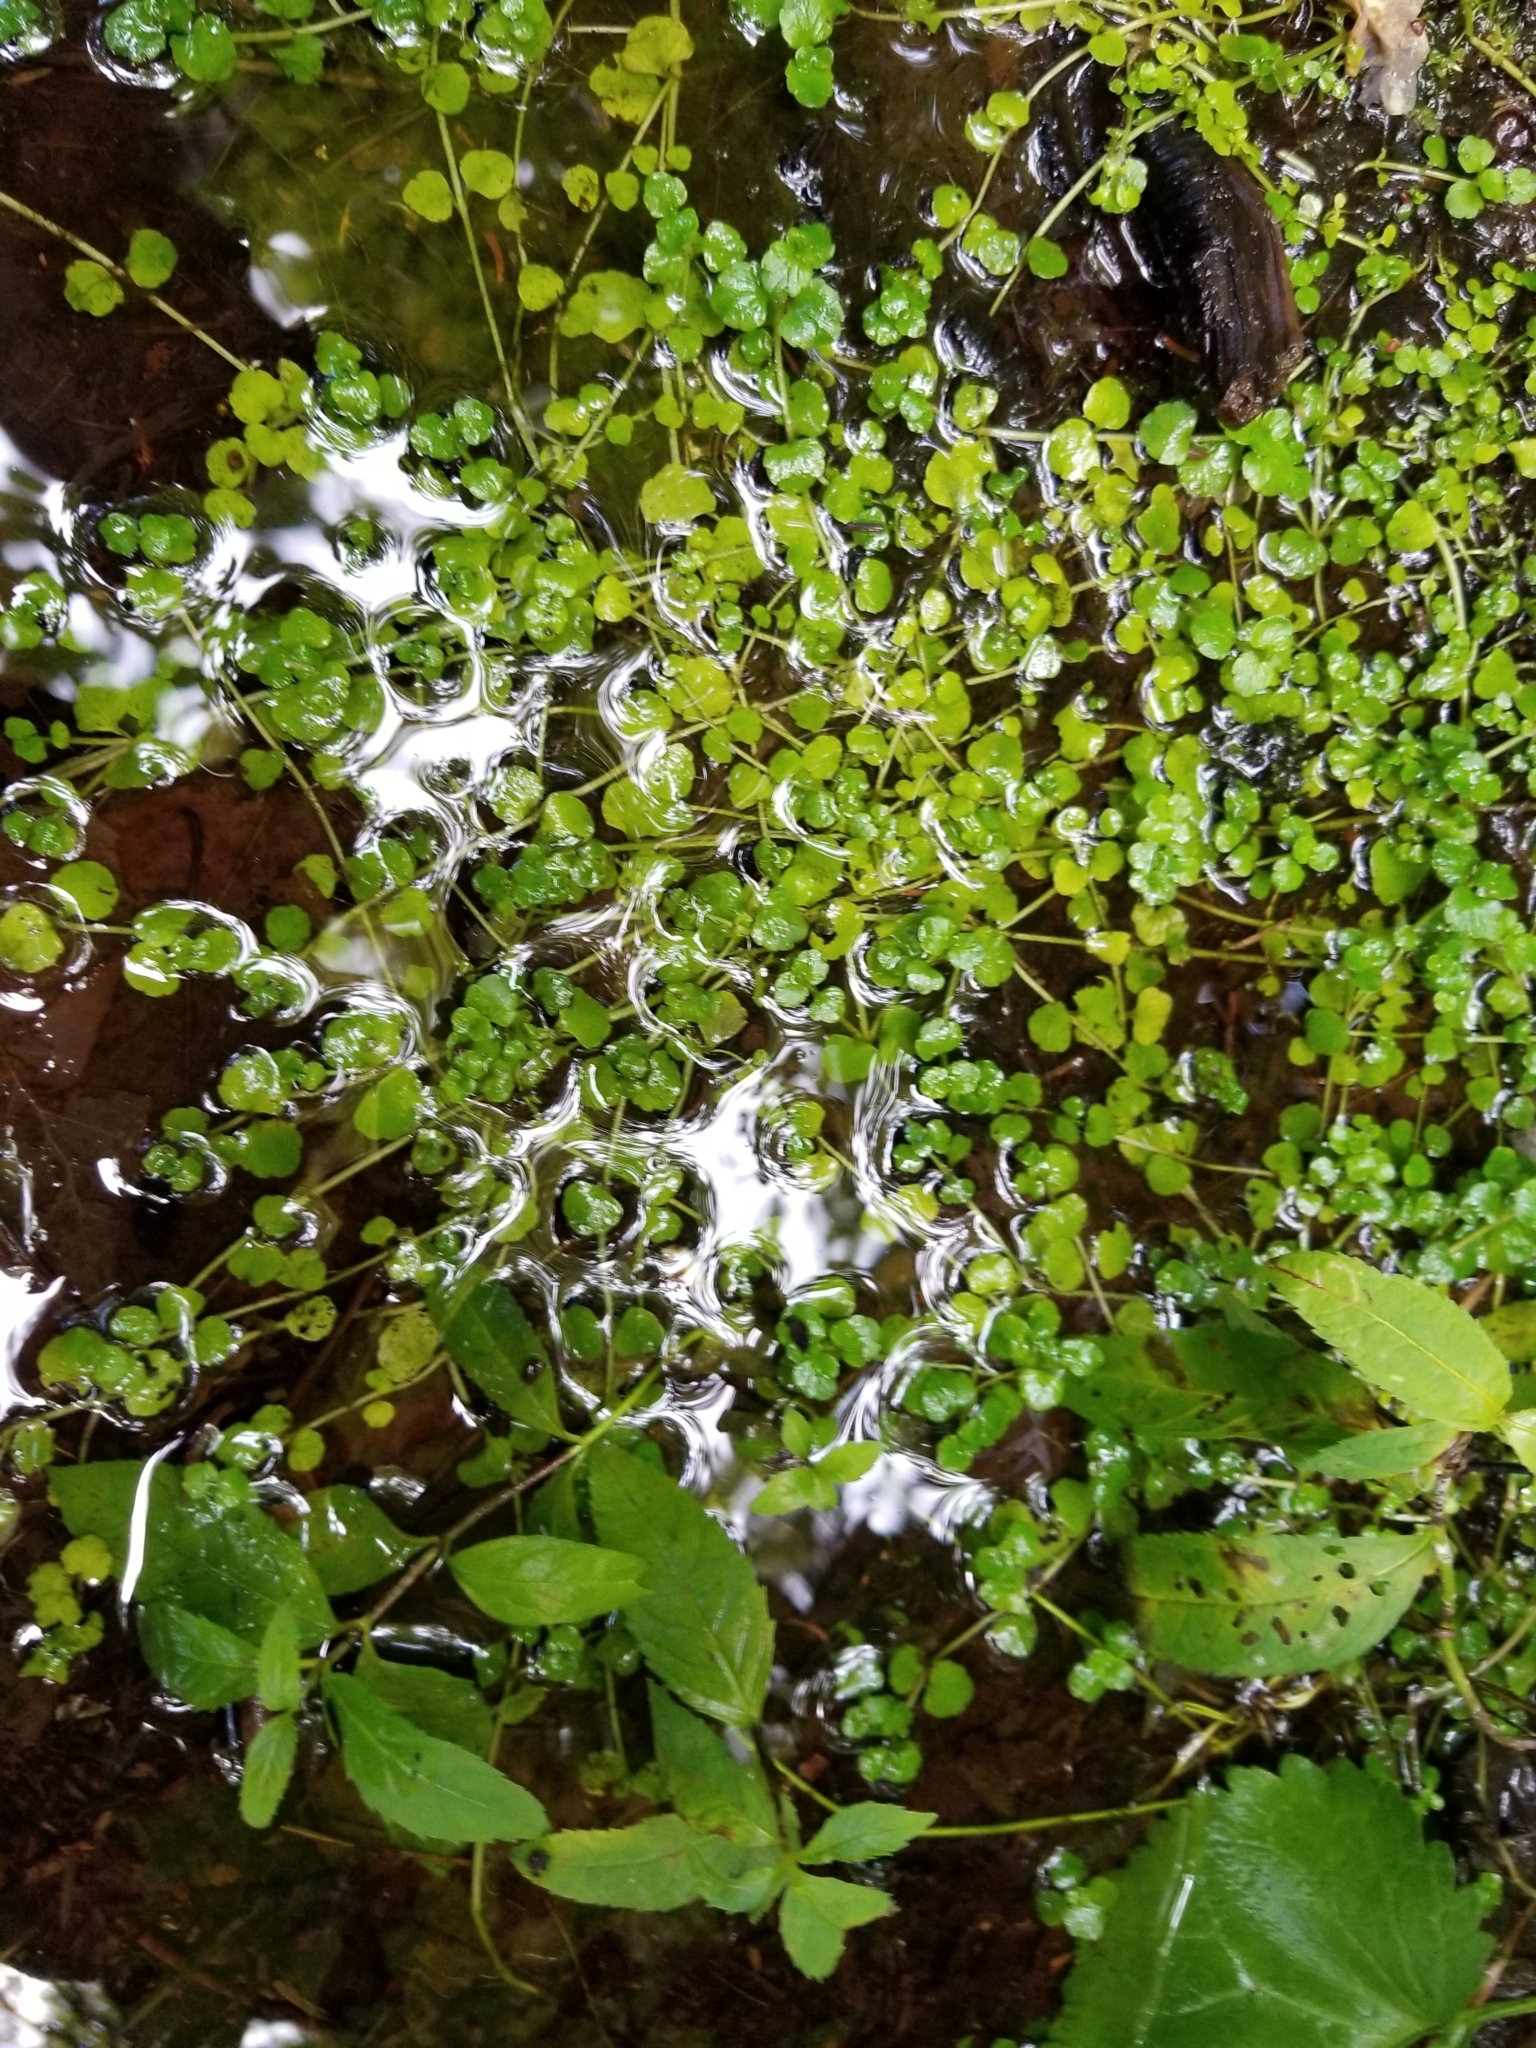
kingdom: Plantae
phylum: Tracheophyta
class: Magnoliopsida
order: Saxifragales
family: Saxifragaceae
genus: Chrysosplenium
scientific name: Chrysosplenium americanum
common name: American golden-saxifrage
